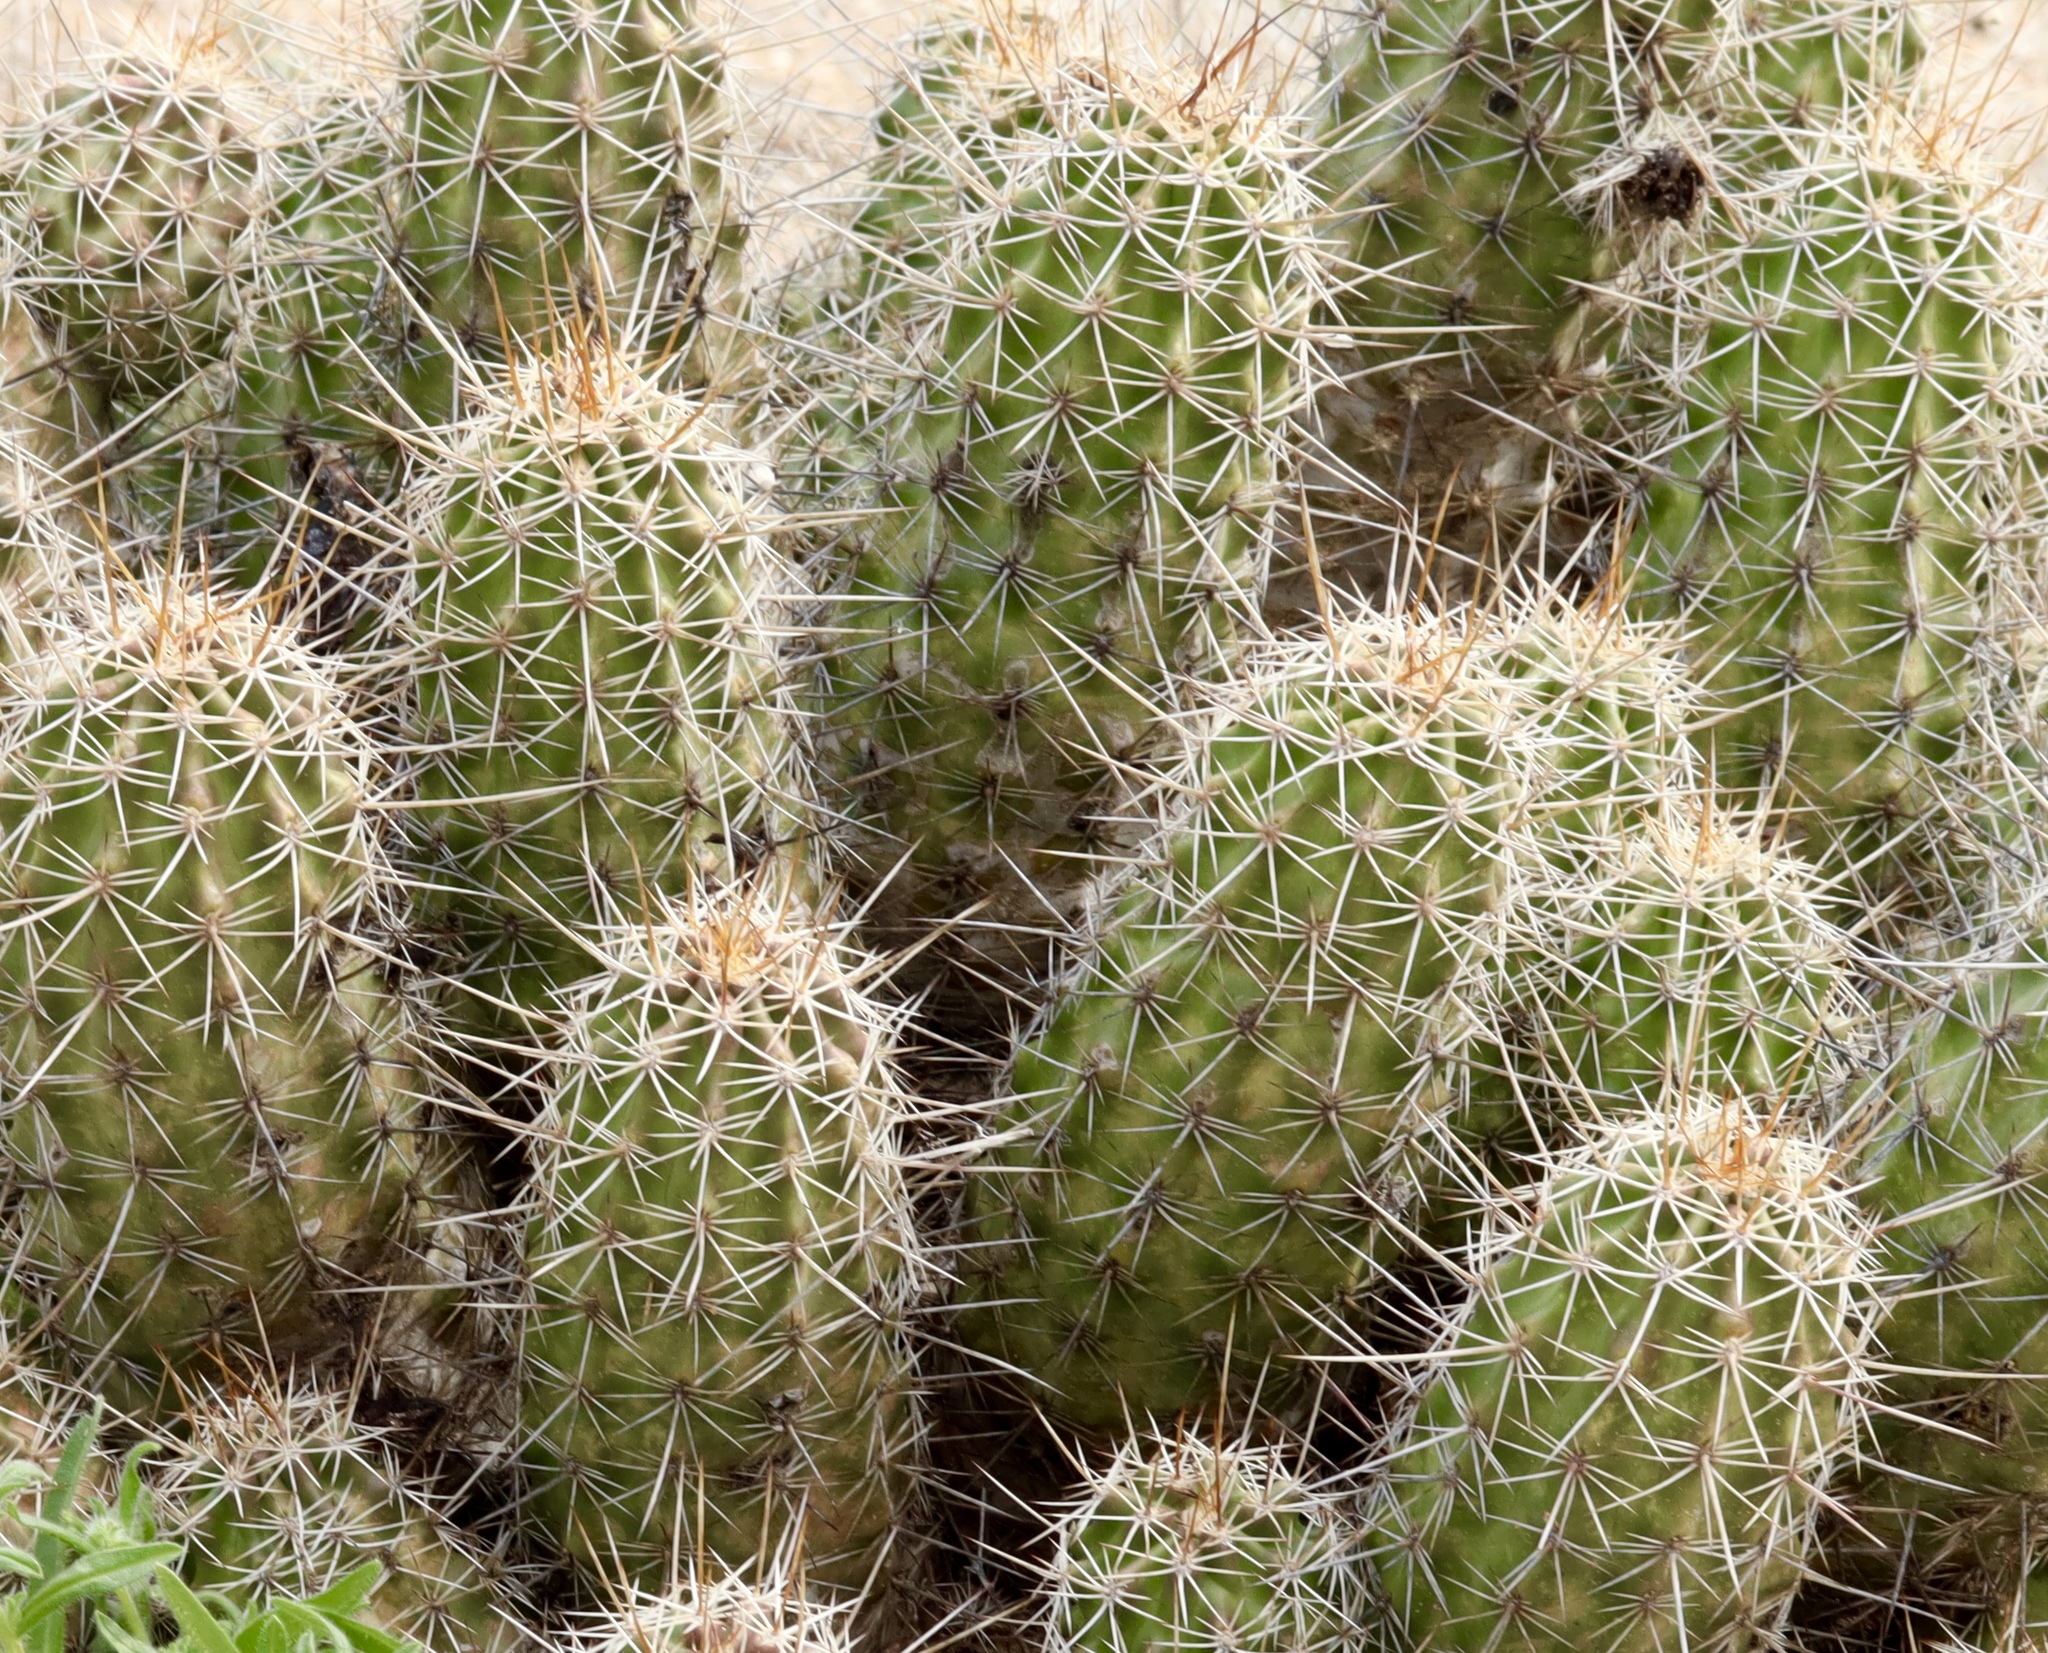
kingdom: Plantae
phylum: Tracheophyta
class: Magnoliopsida
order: Caryophyllales
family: Cactaceae
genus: Echinocereus
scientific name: Echinocereus fasciculatus
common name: Bundle hedgehog
